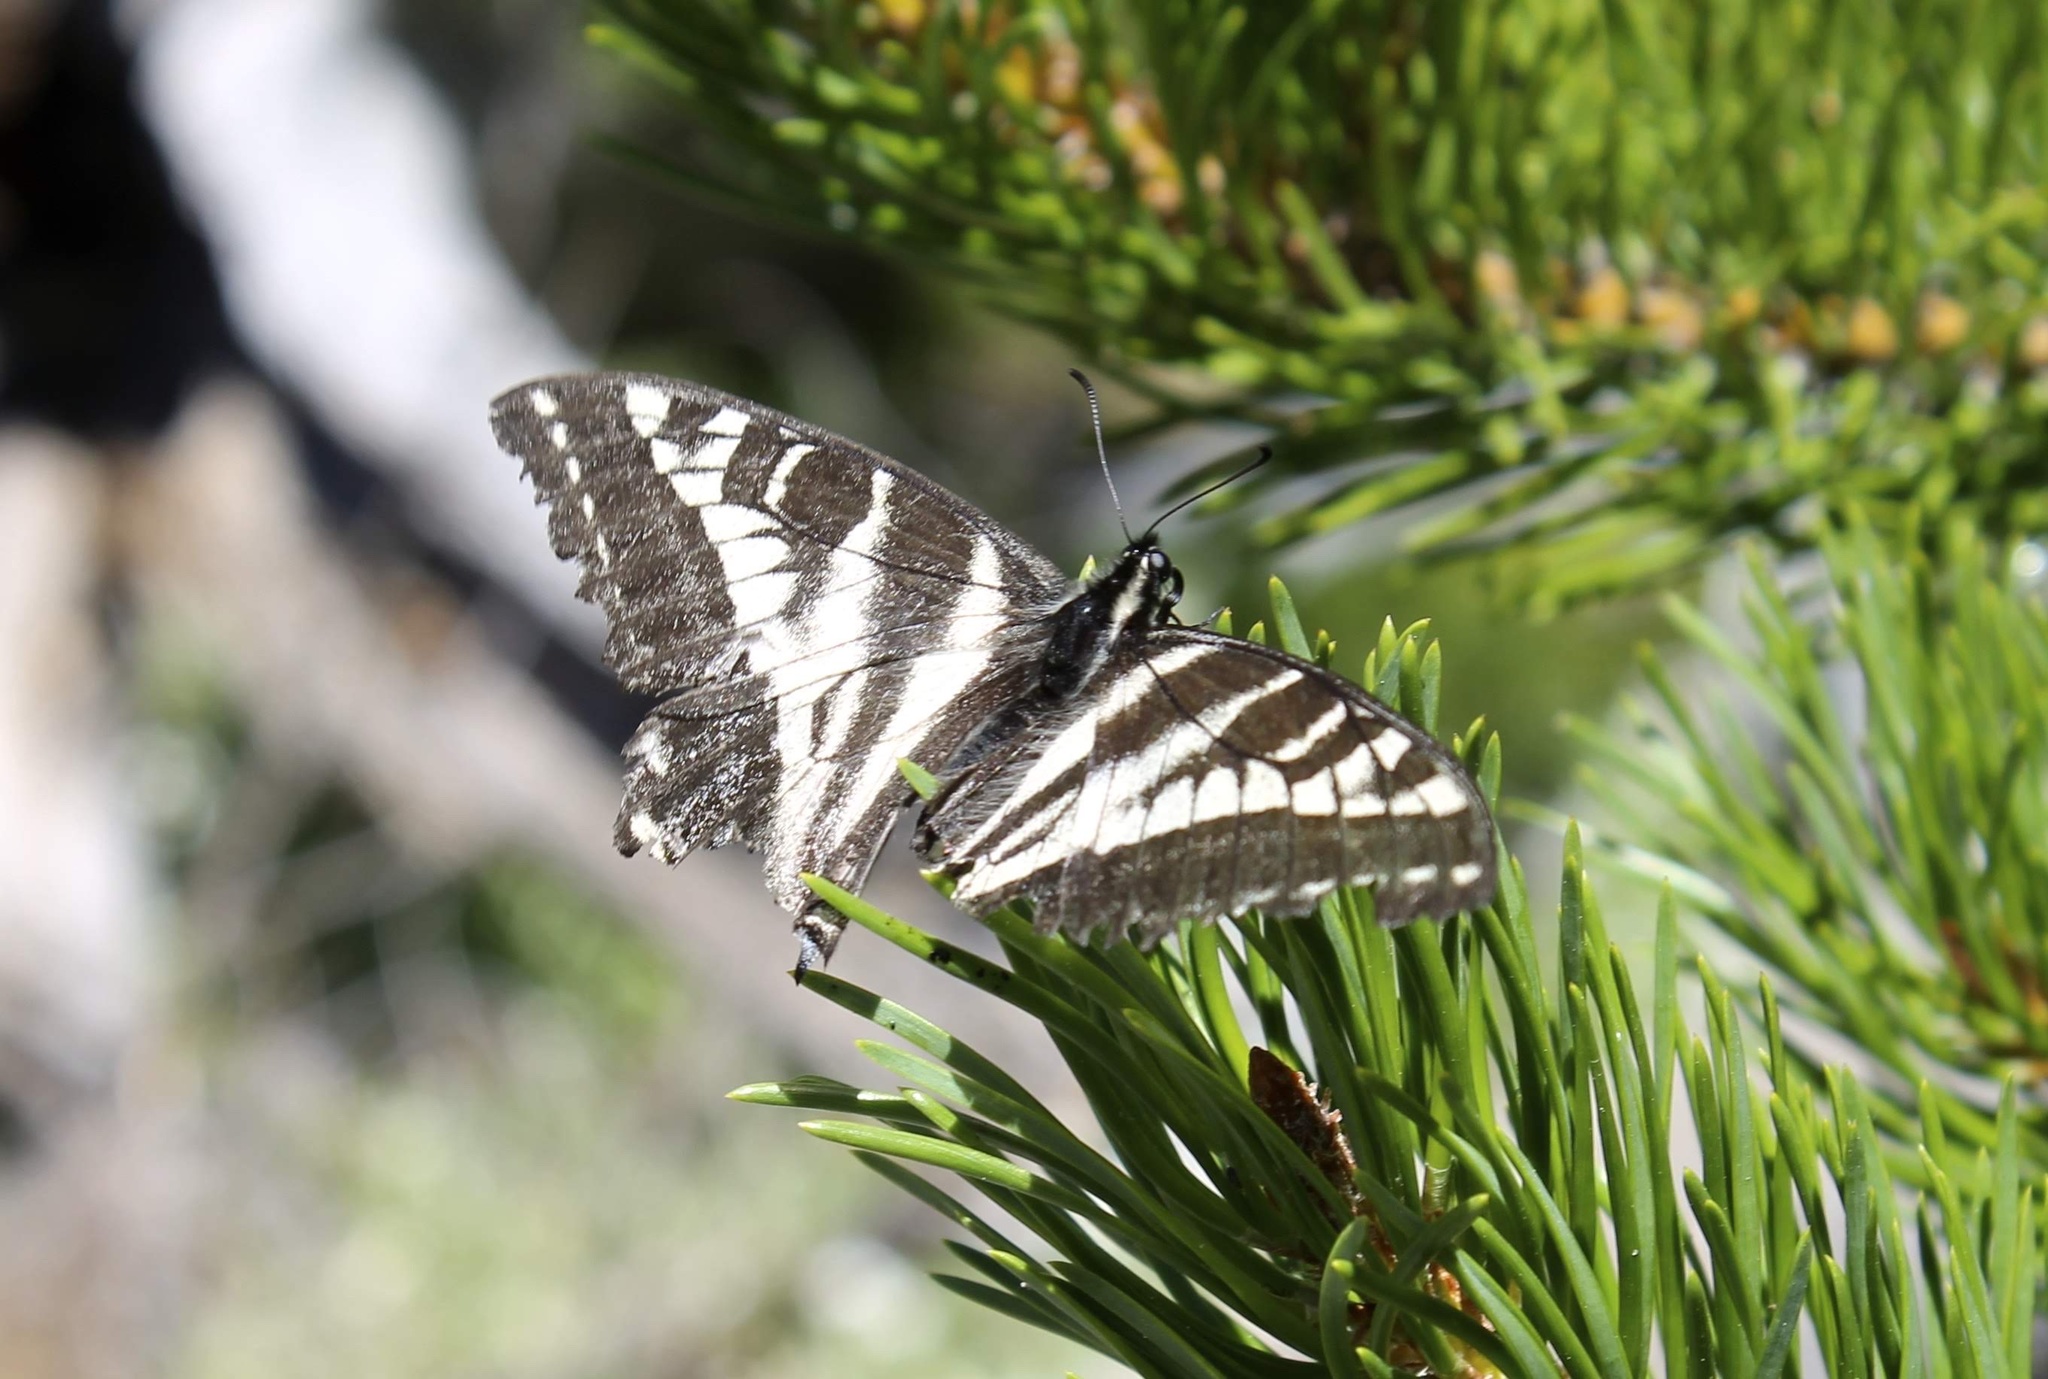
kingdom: Animalia
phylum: Arthropoda
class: Insecta
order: Lepidoptera
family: Papilionidae
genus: Papilio
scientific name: Papilio eurymedon
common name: Pale tiger swallowtail
